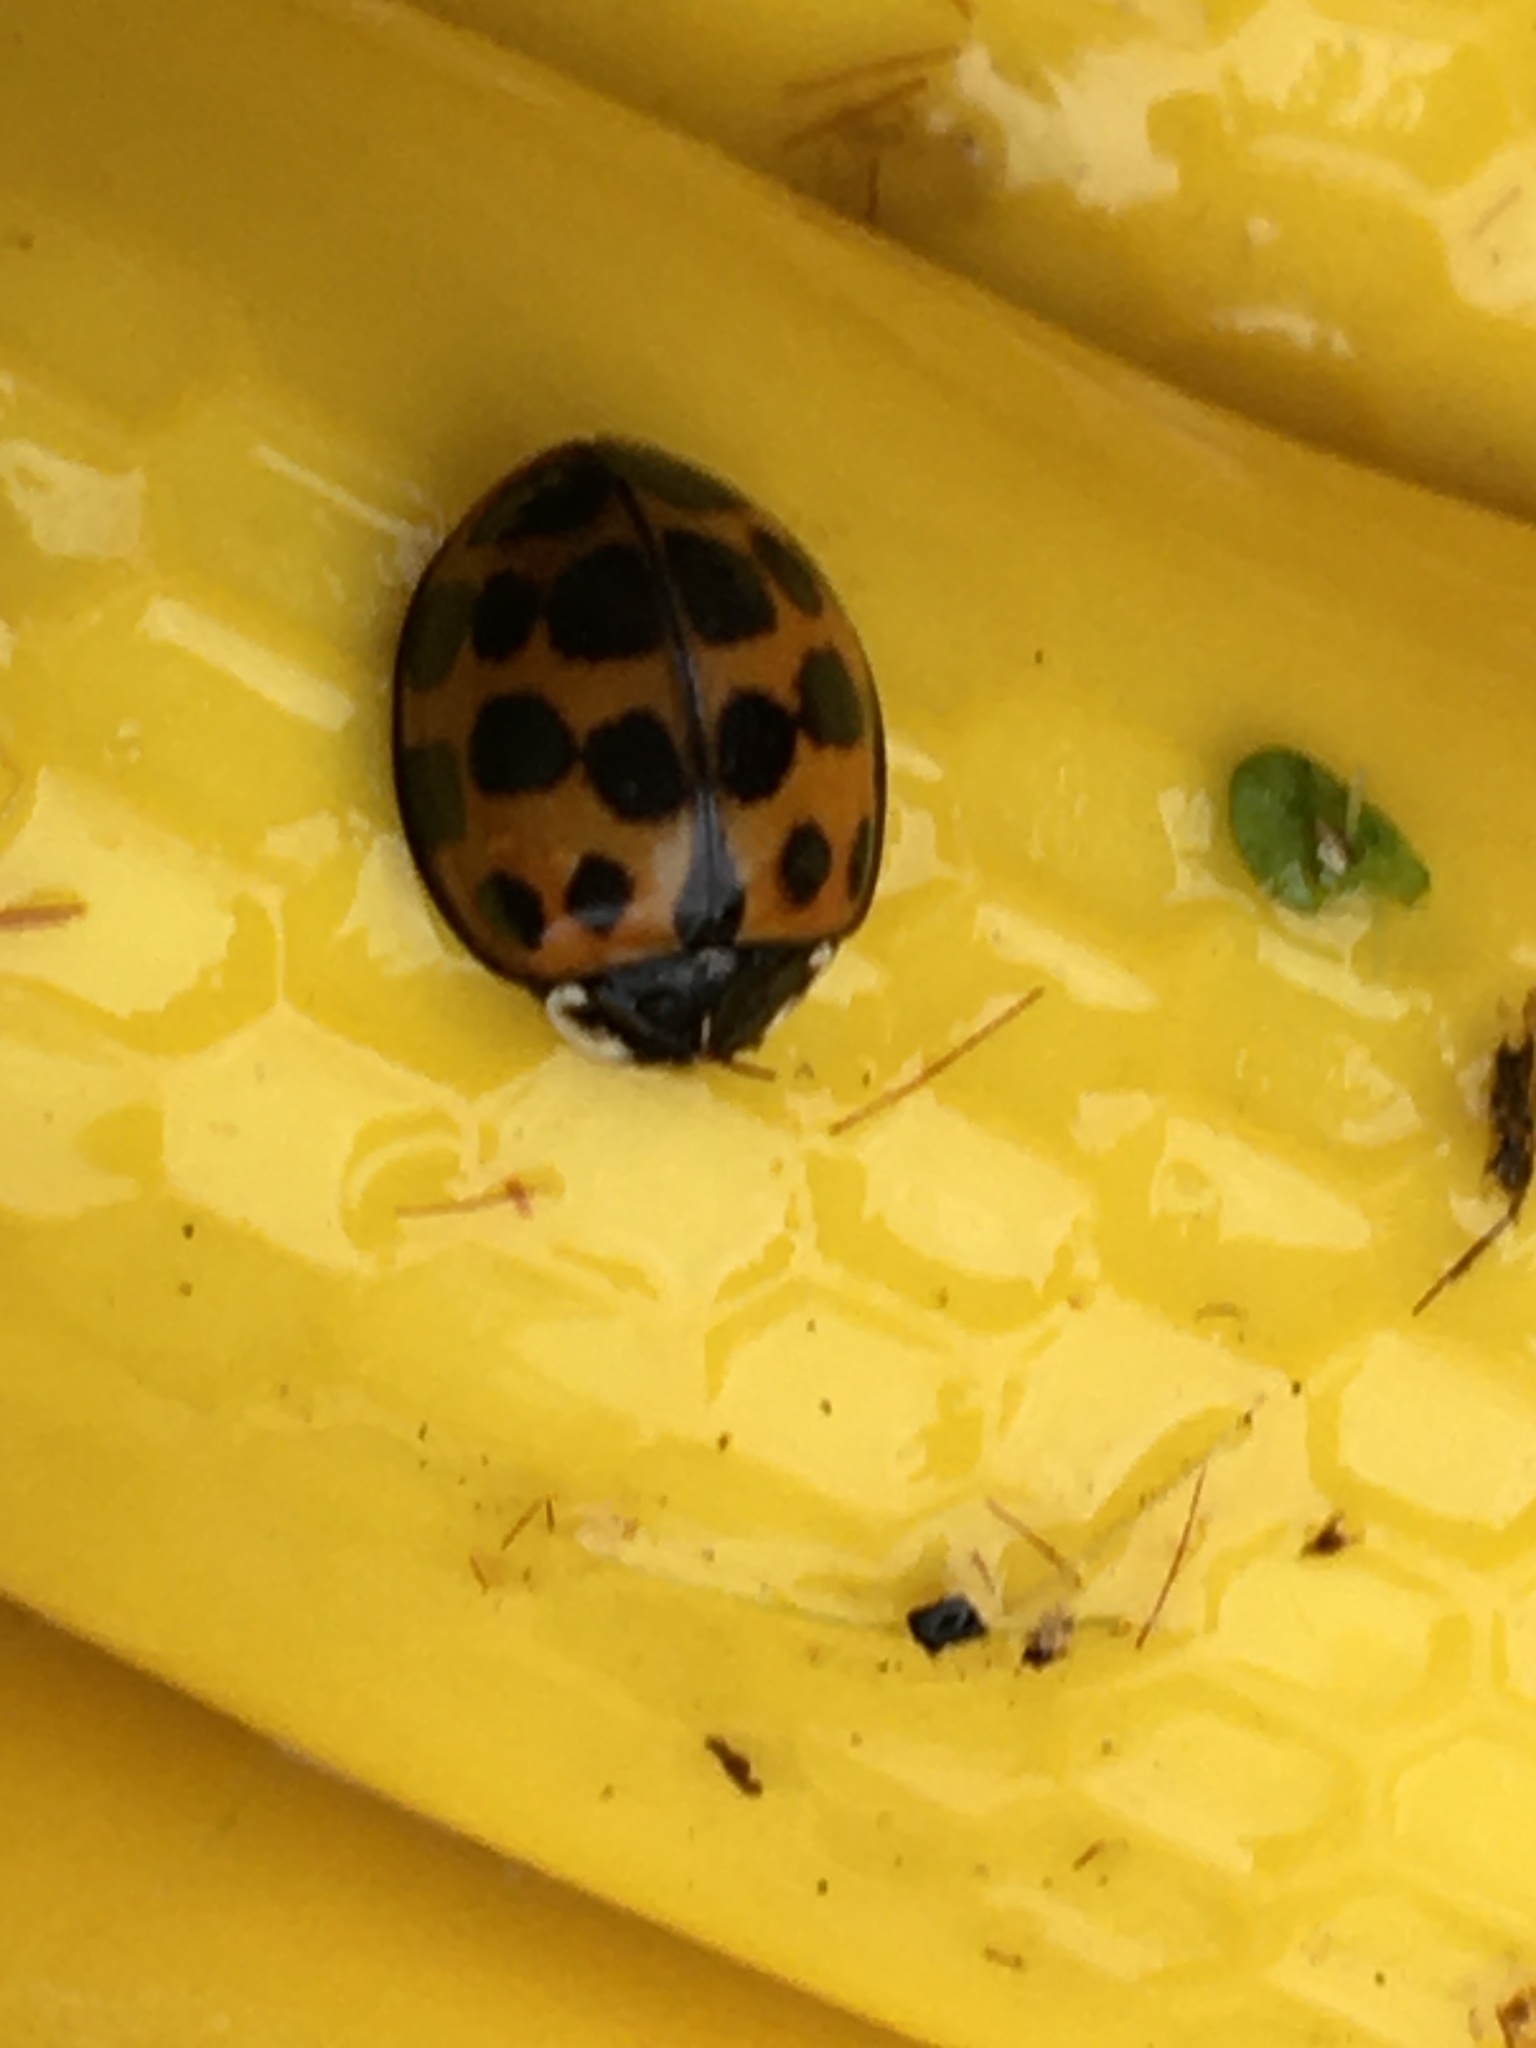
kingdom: Animalia
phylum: Arthropoda
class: Insecta
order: Coleoptera
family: Coccinellidae
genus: Harmonia
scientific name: Harmonia axyridis
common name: Harlequin ladybird
